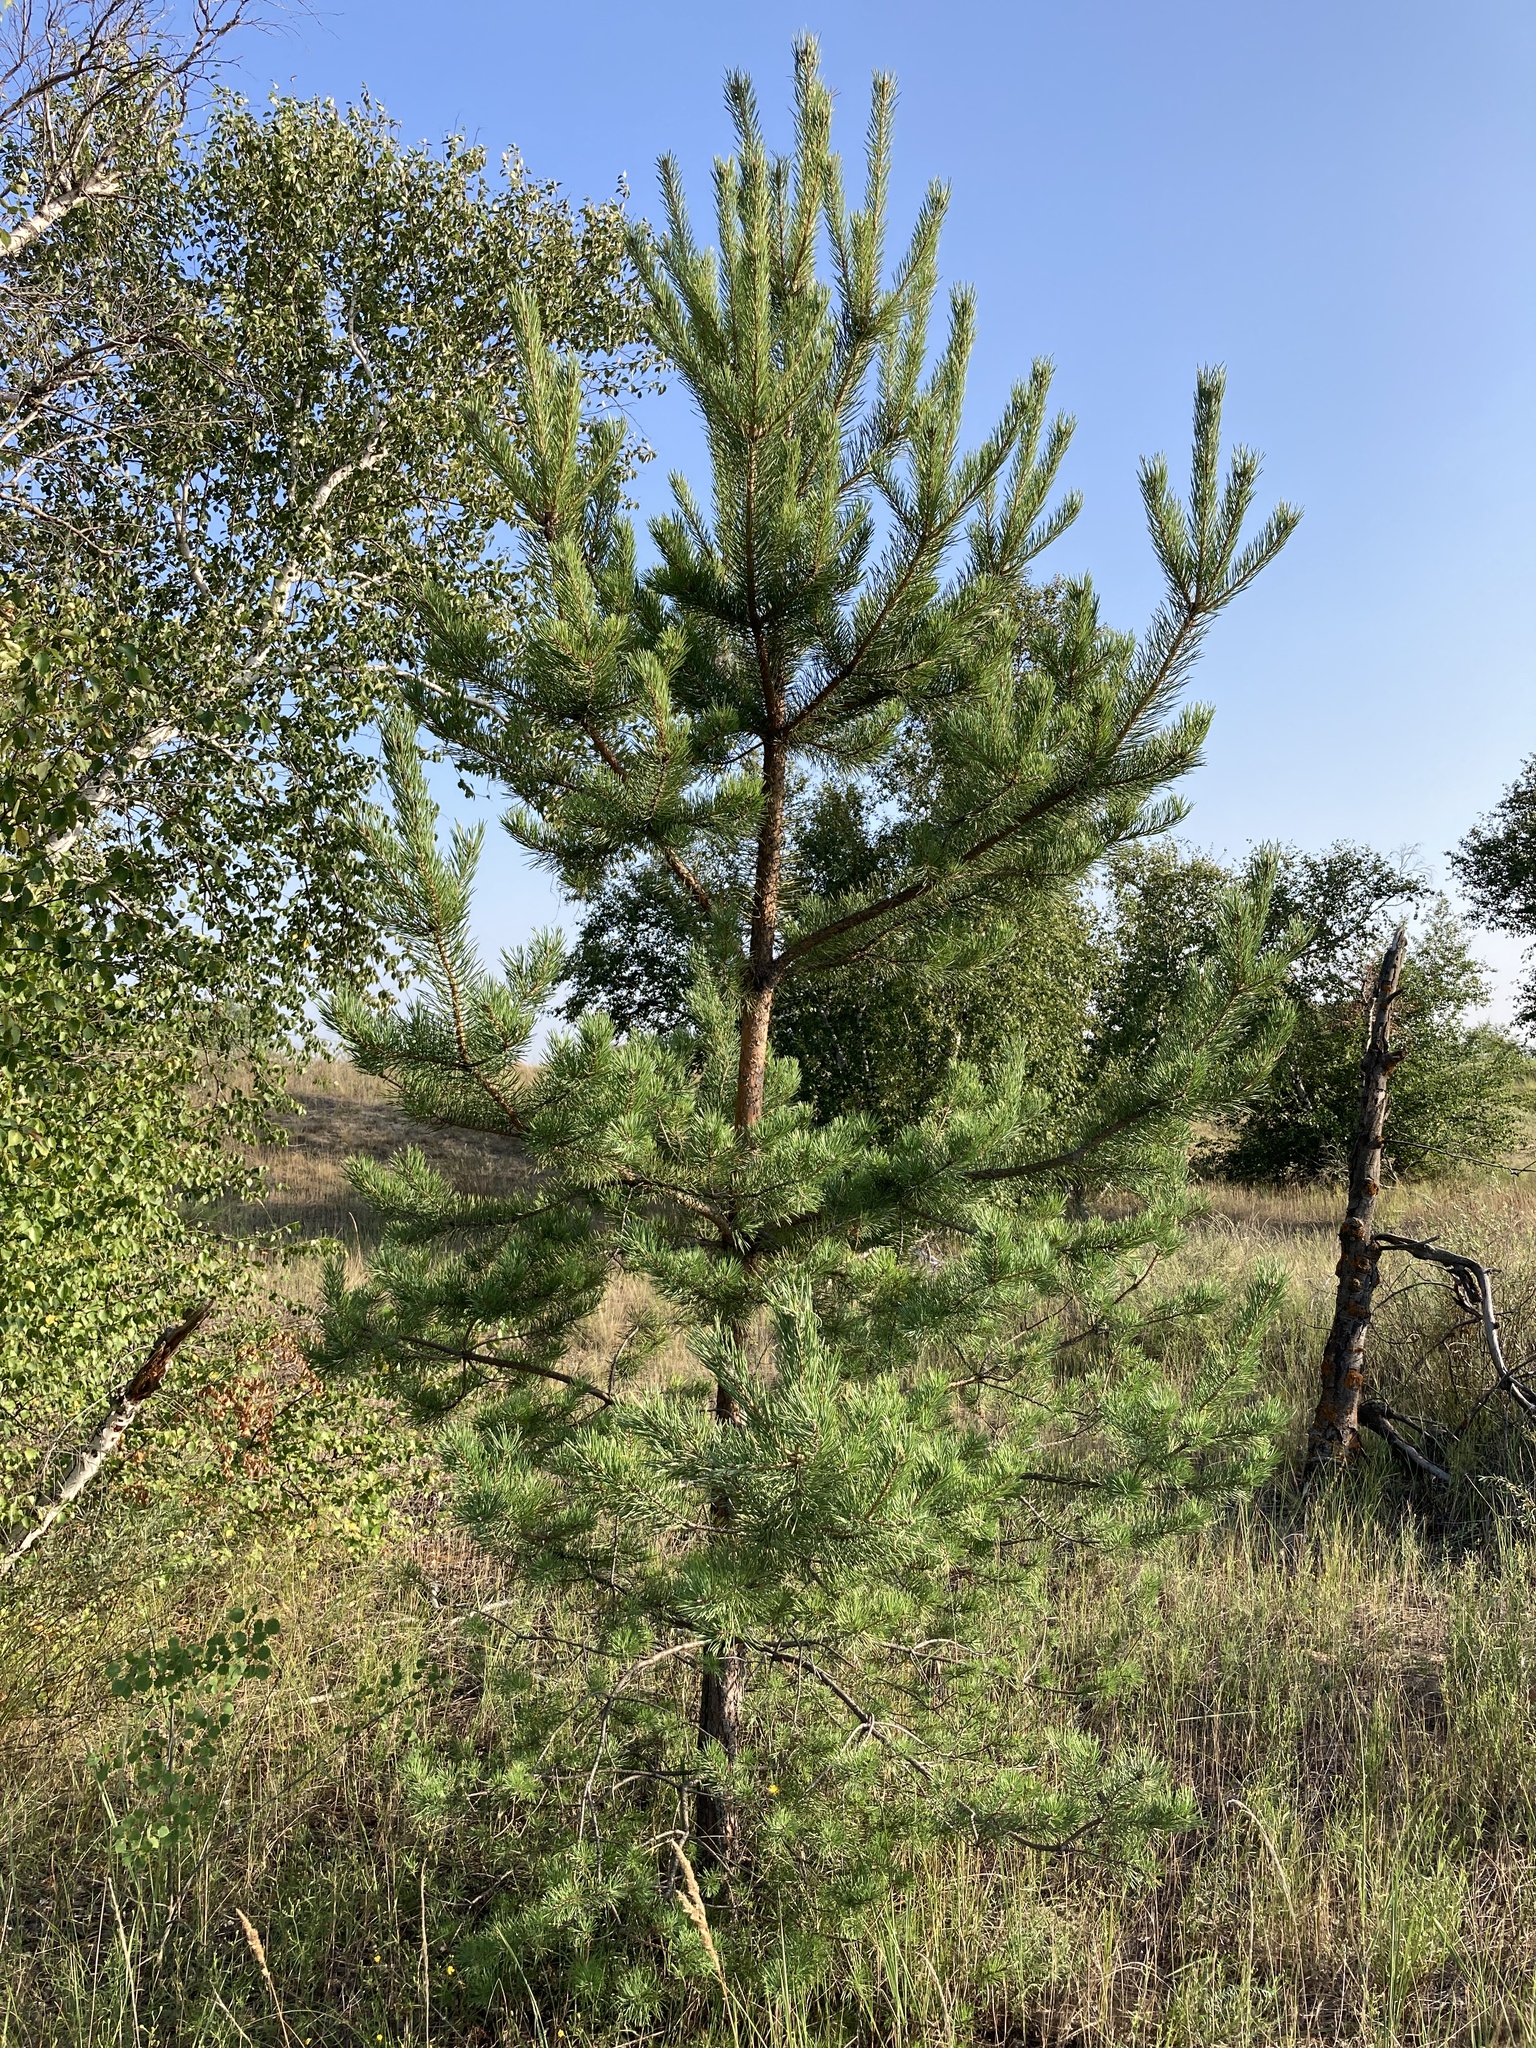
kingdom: Plantae
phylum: Tracheophyta
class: Pinopsida
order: Pinales
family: Pinaceae
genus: Pinus
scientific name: Pinus sylvestris
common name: Scots pine
